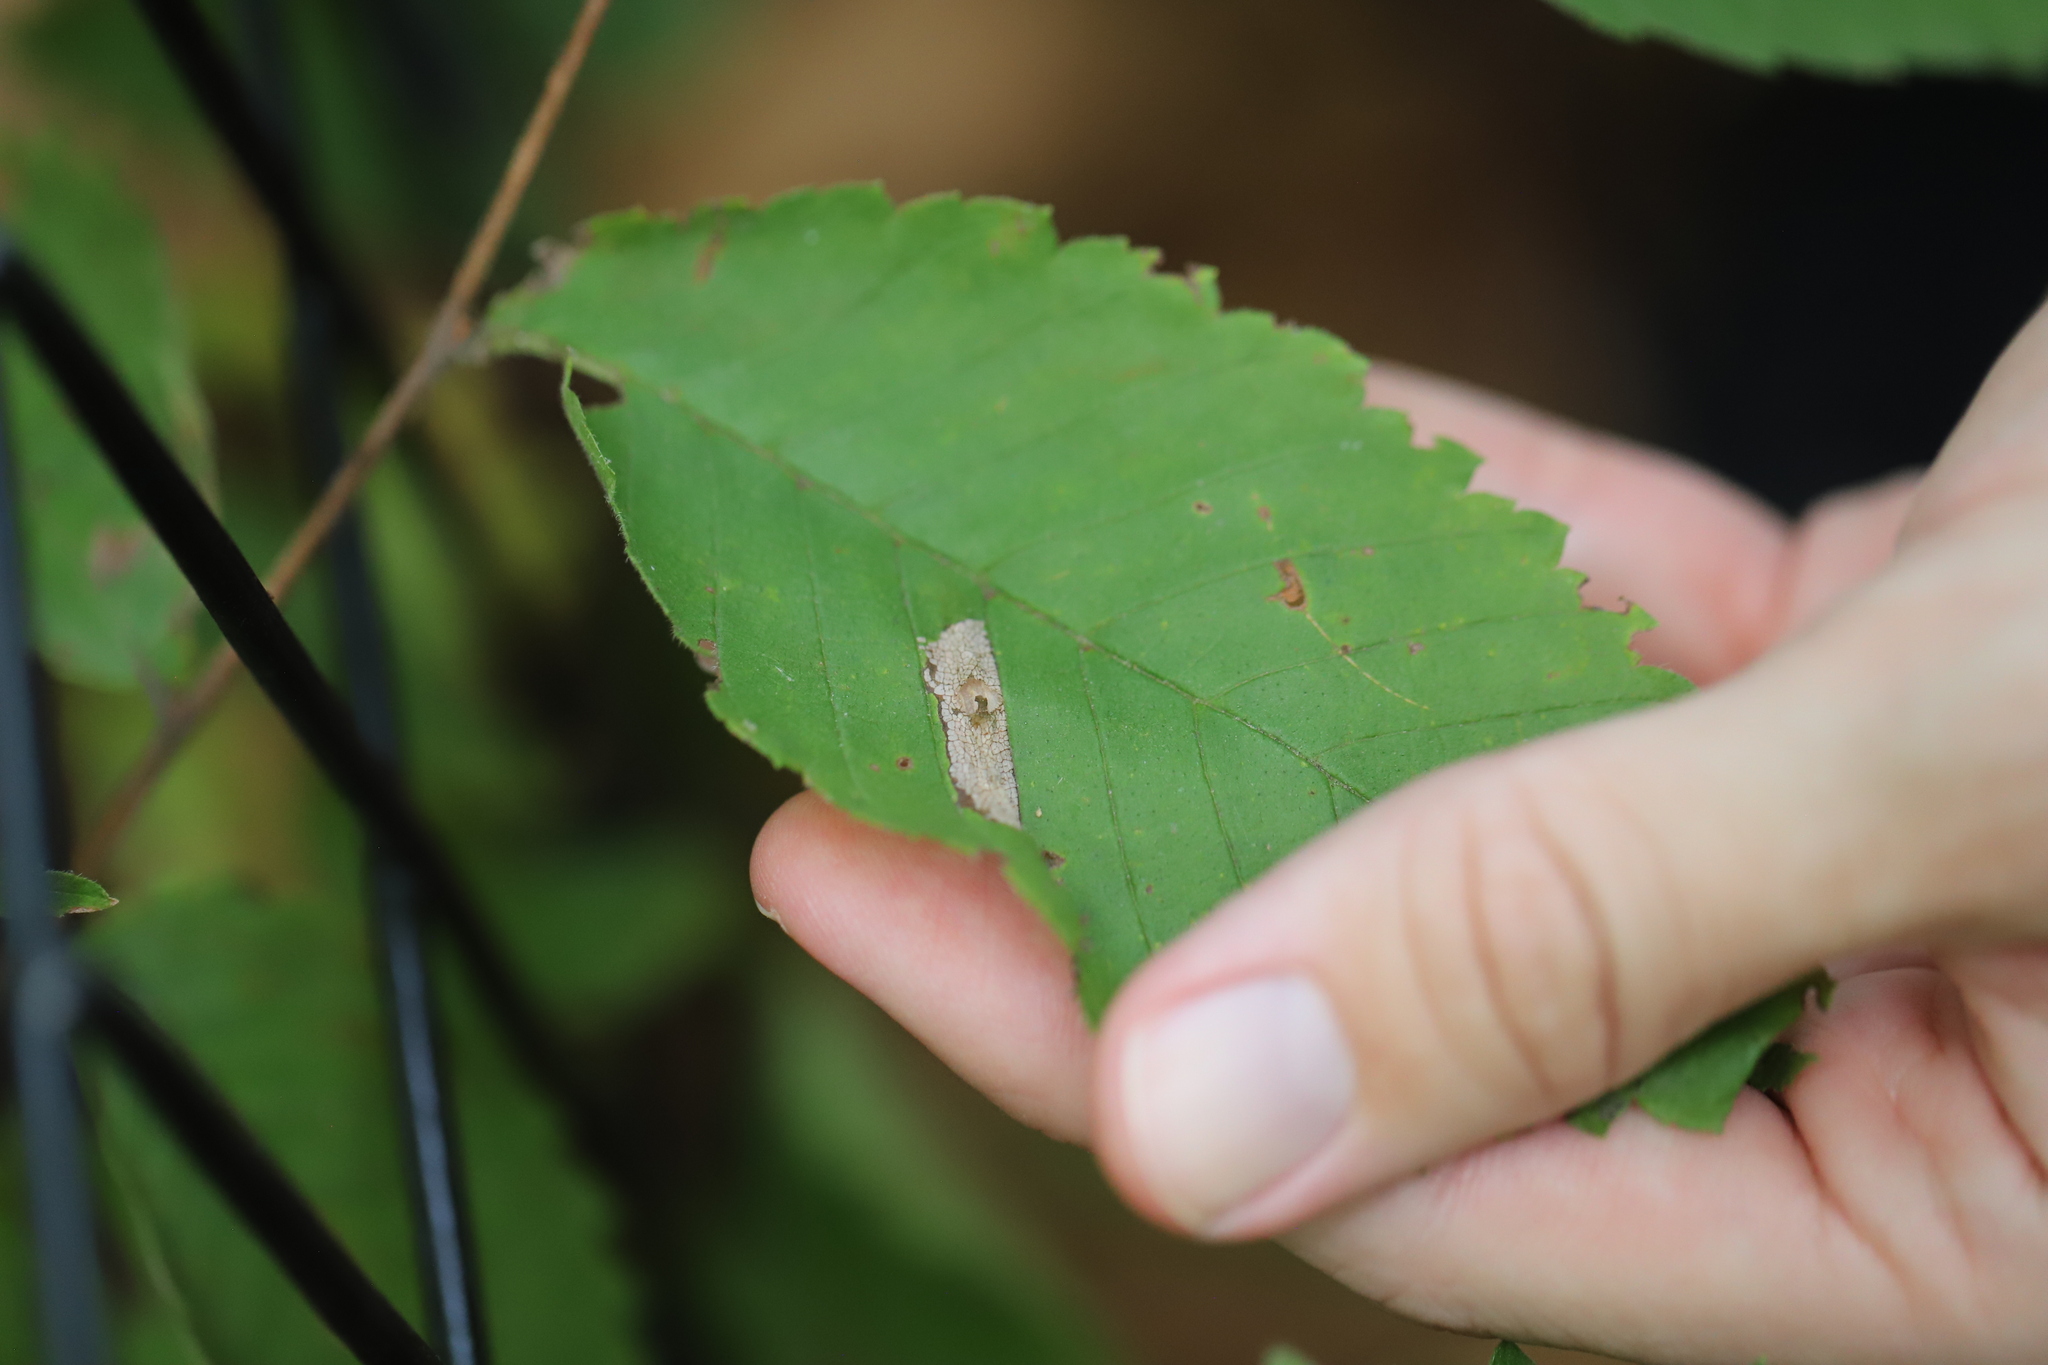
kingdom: Animalia
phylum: Arthropoda
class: Insecta
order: Lepidoptera
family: Gracillariidae
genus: Phyllonorycter
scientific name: Phyllonorycter argentinotella
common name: Golden elm leafminer
